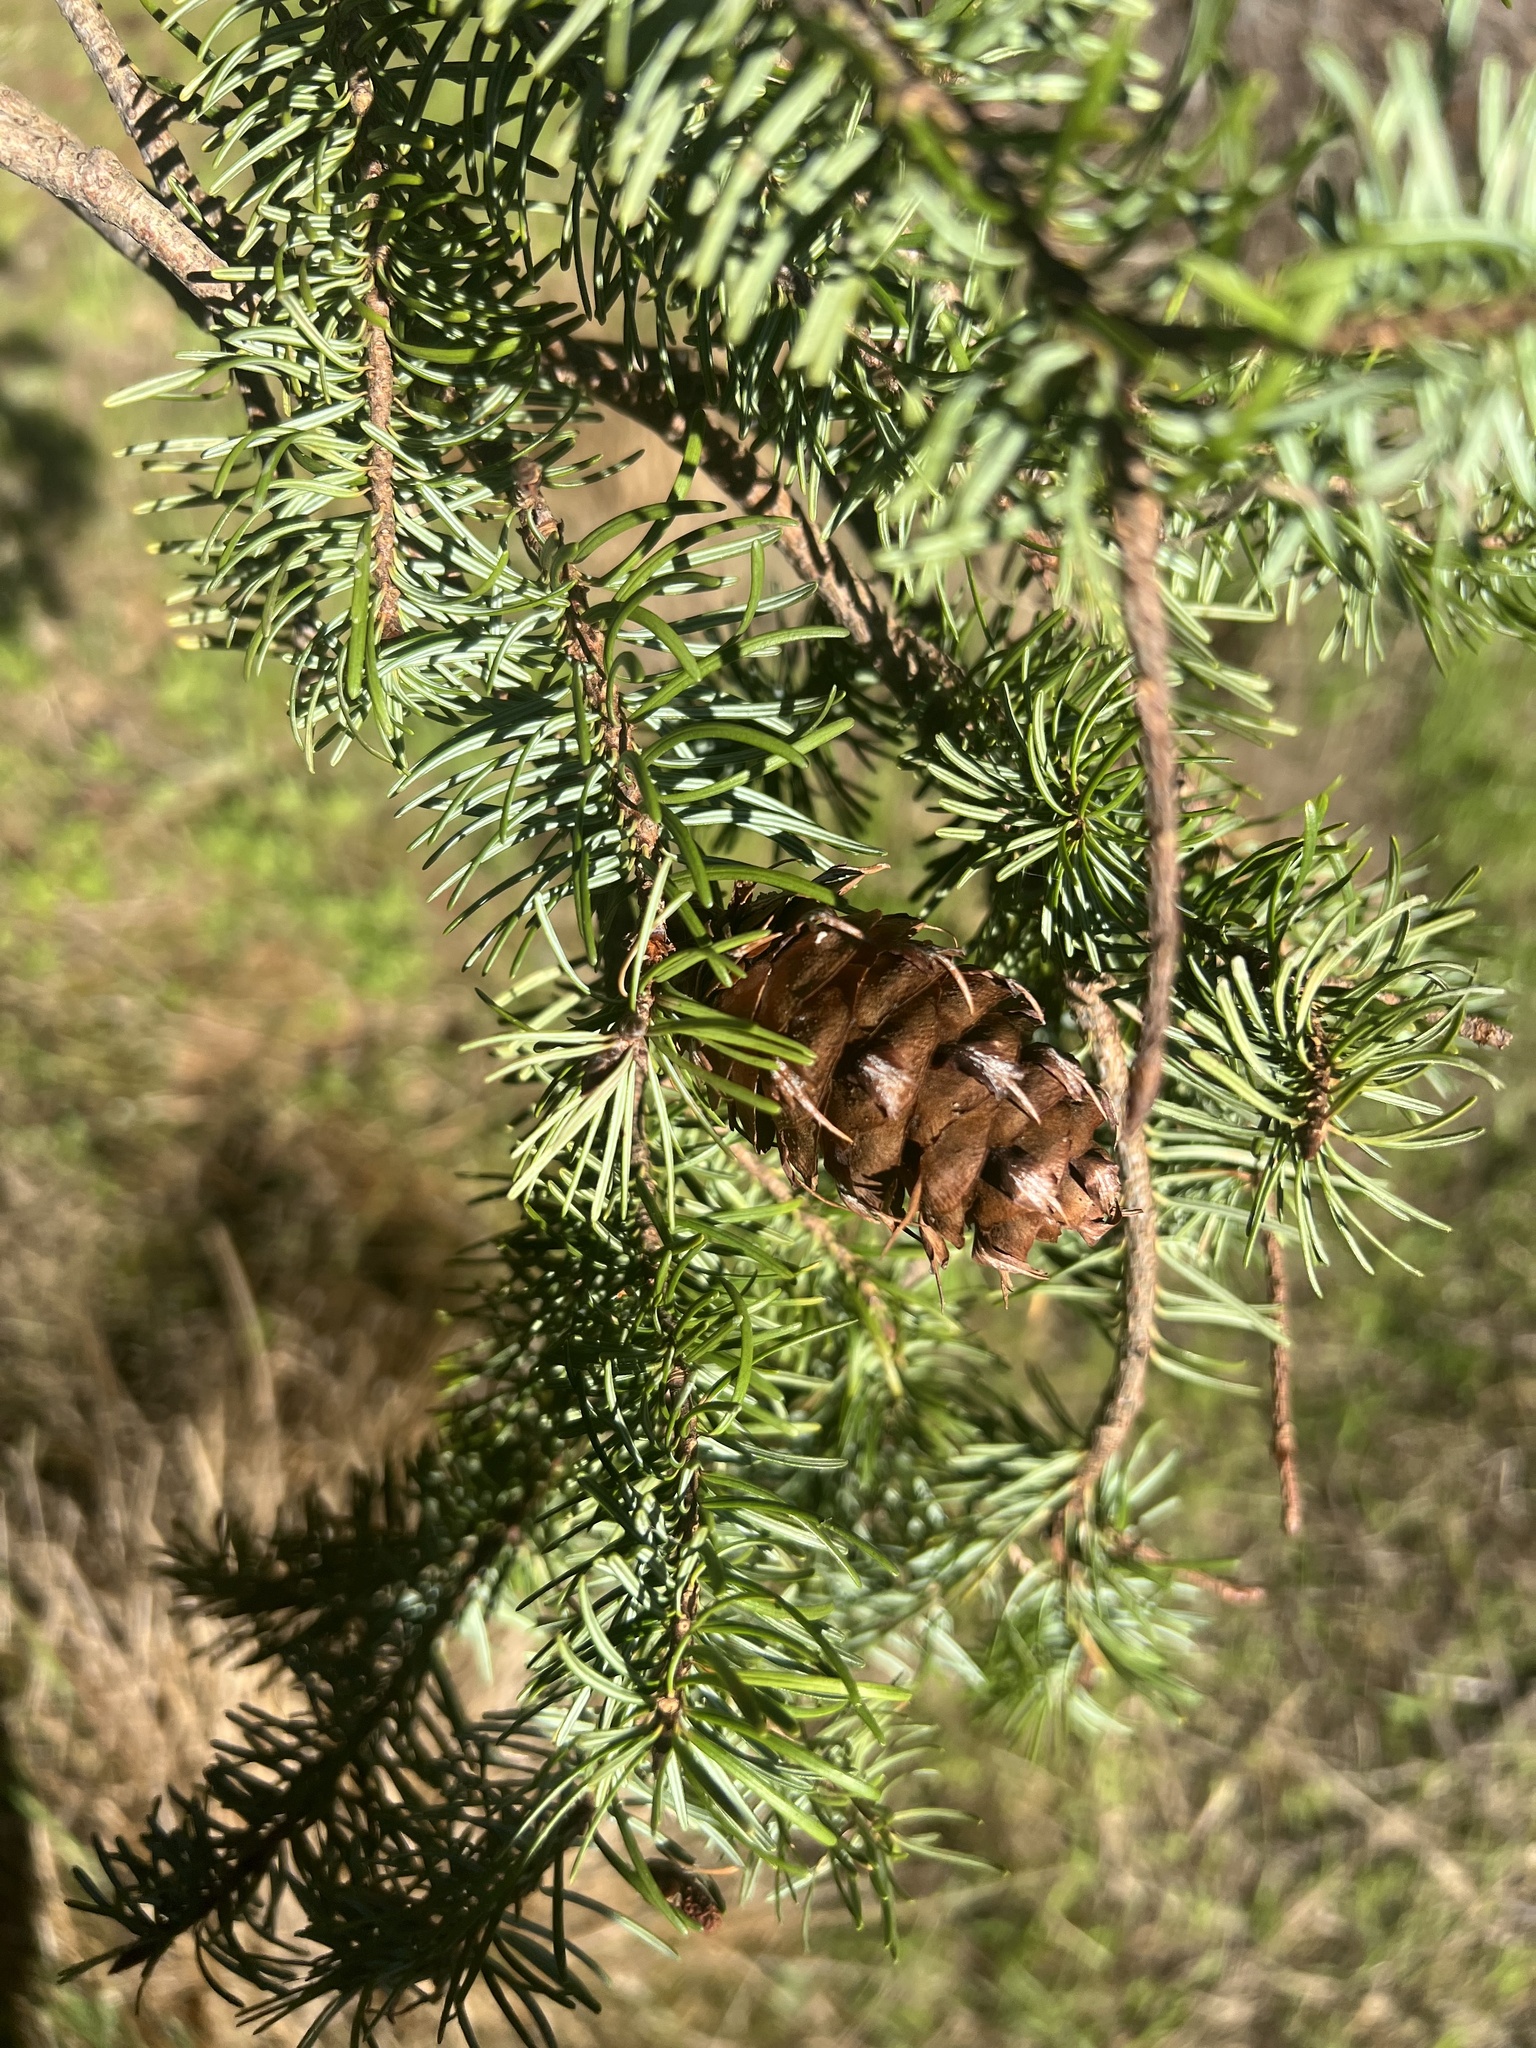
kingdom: Plantae
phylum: Tracheophyta
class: Pinopsida
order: Pinales
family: Pinaceae
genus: Pseudotsuga
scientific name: Pseudotsuga menziesii
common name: Douglas fir
